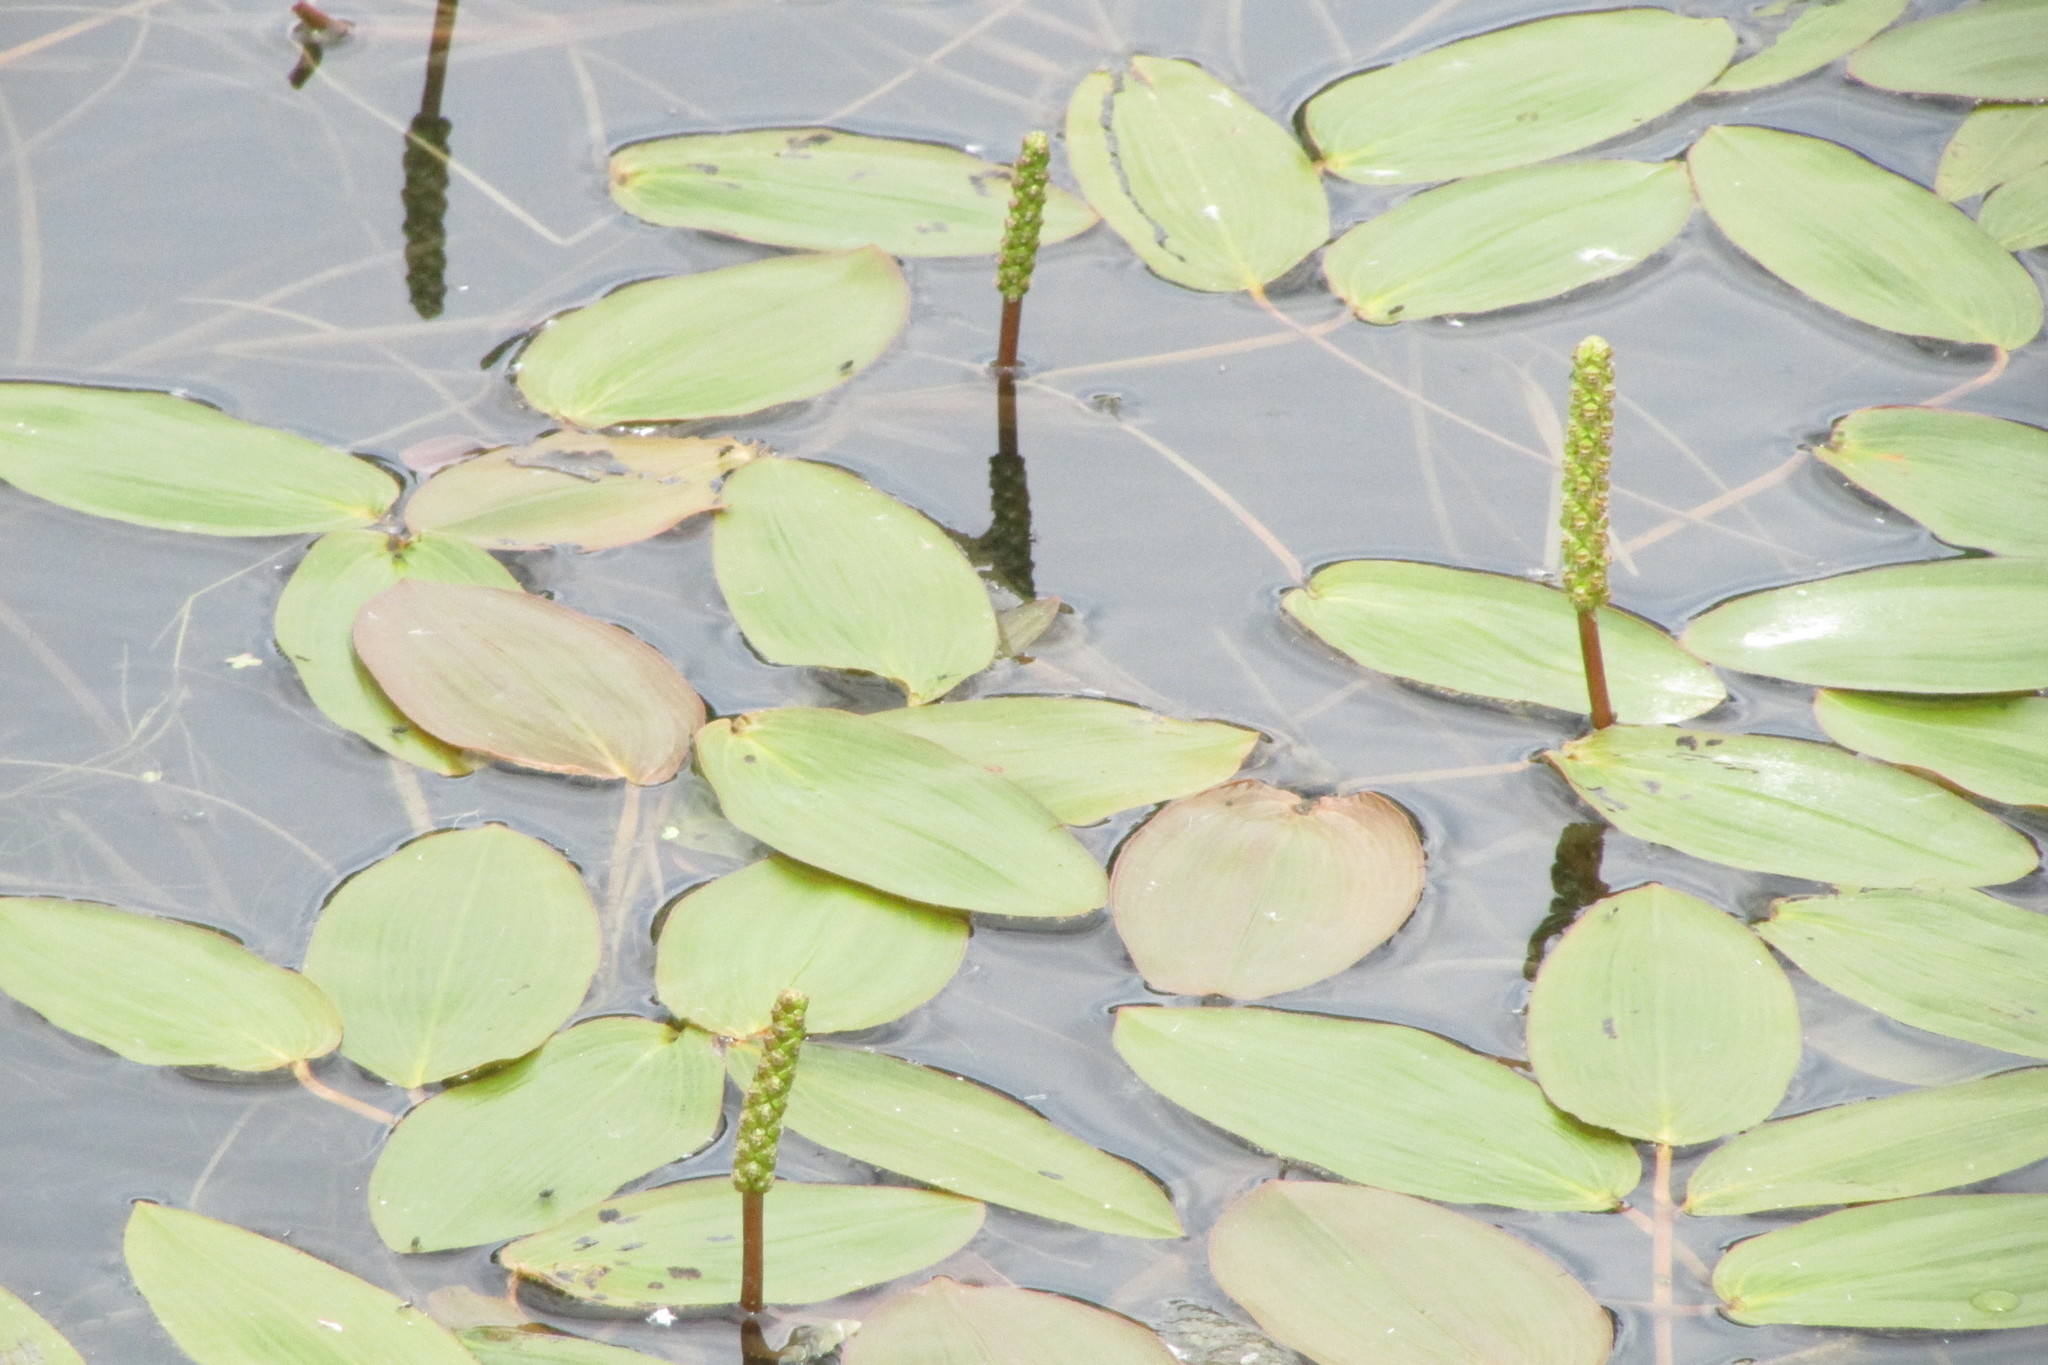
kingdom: Plantae
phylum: Tracheophyta
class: Liliopsida
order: Alismatales
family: Potamogetonaceae
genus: Potamogeton
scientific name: Potamogeton natans
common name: Broad-leaved pondweed
